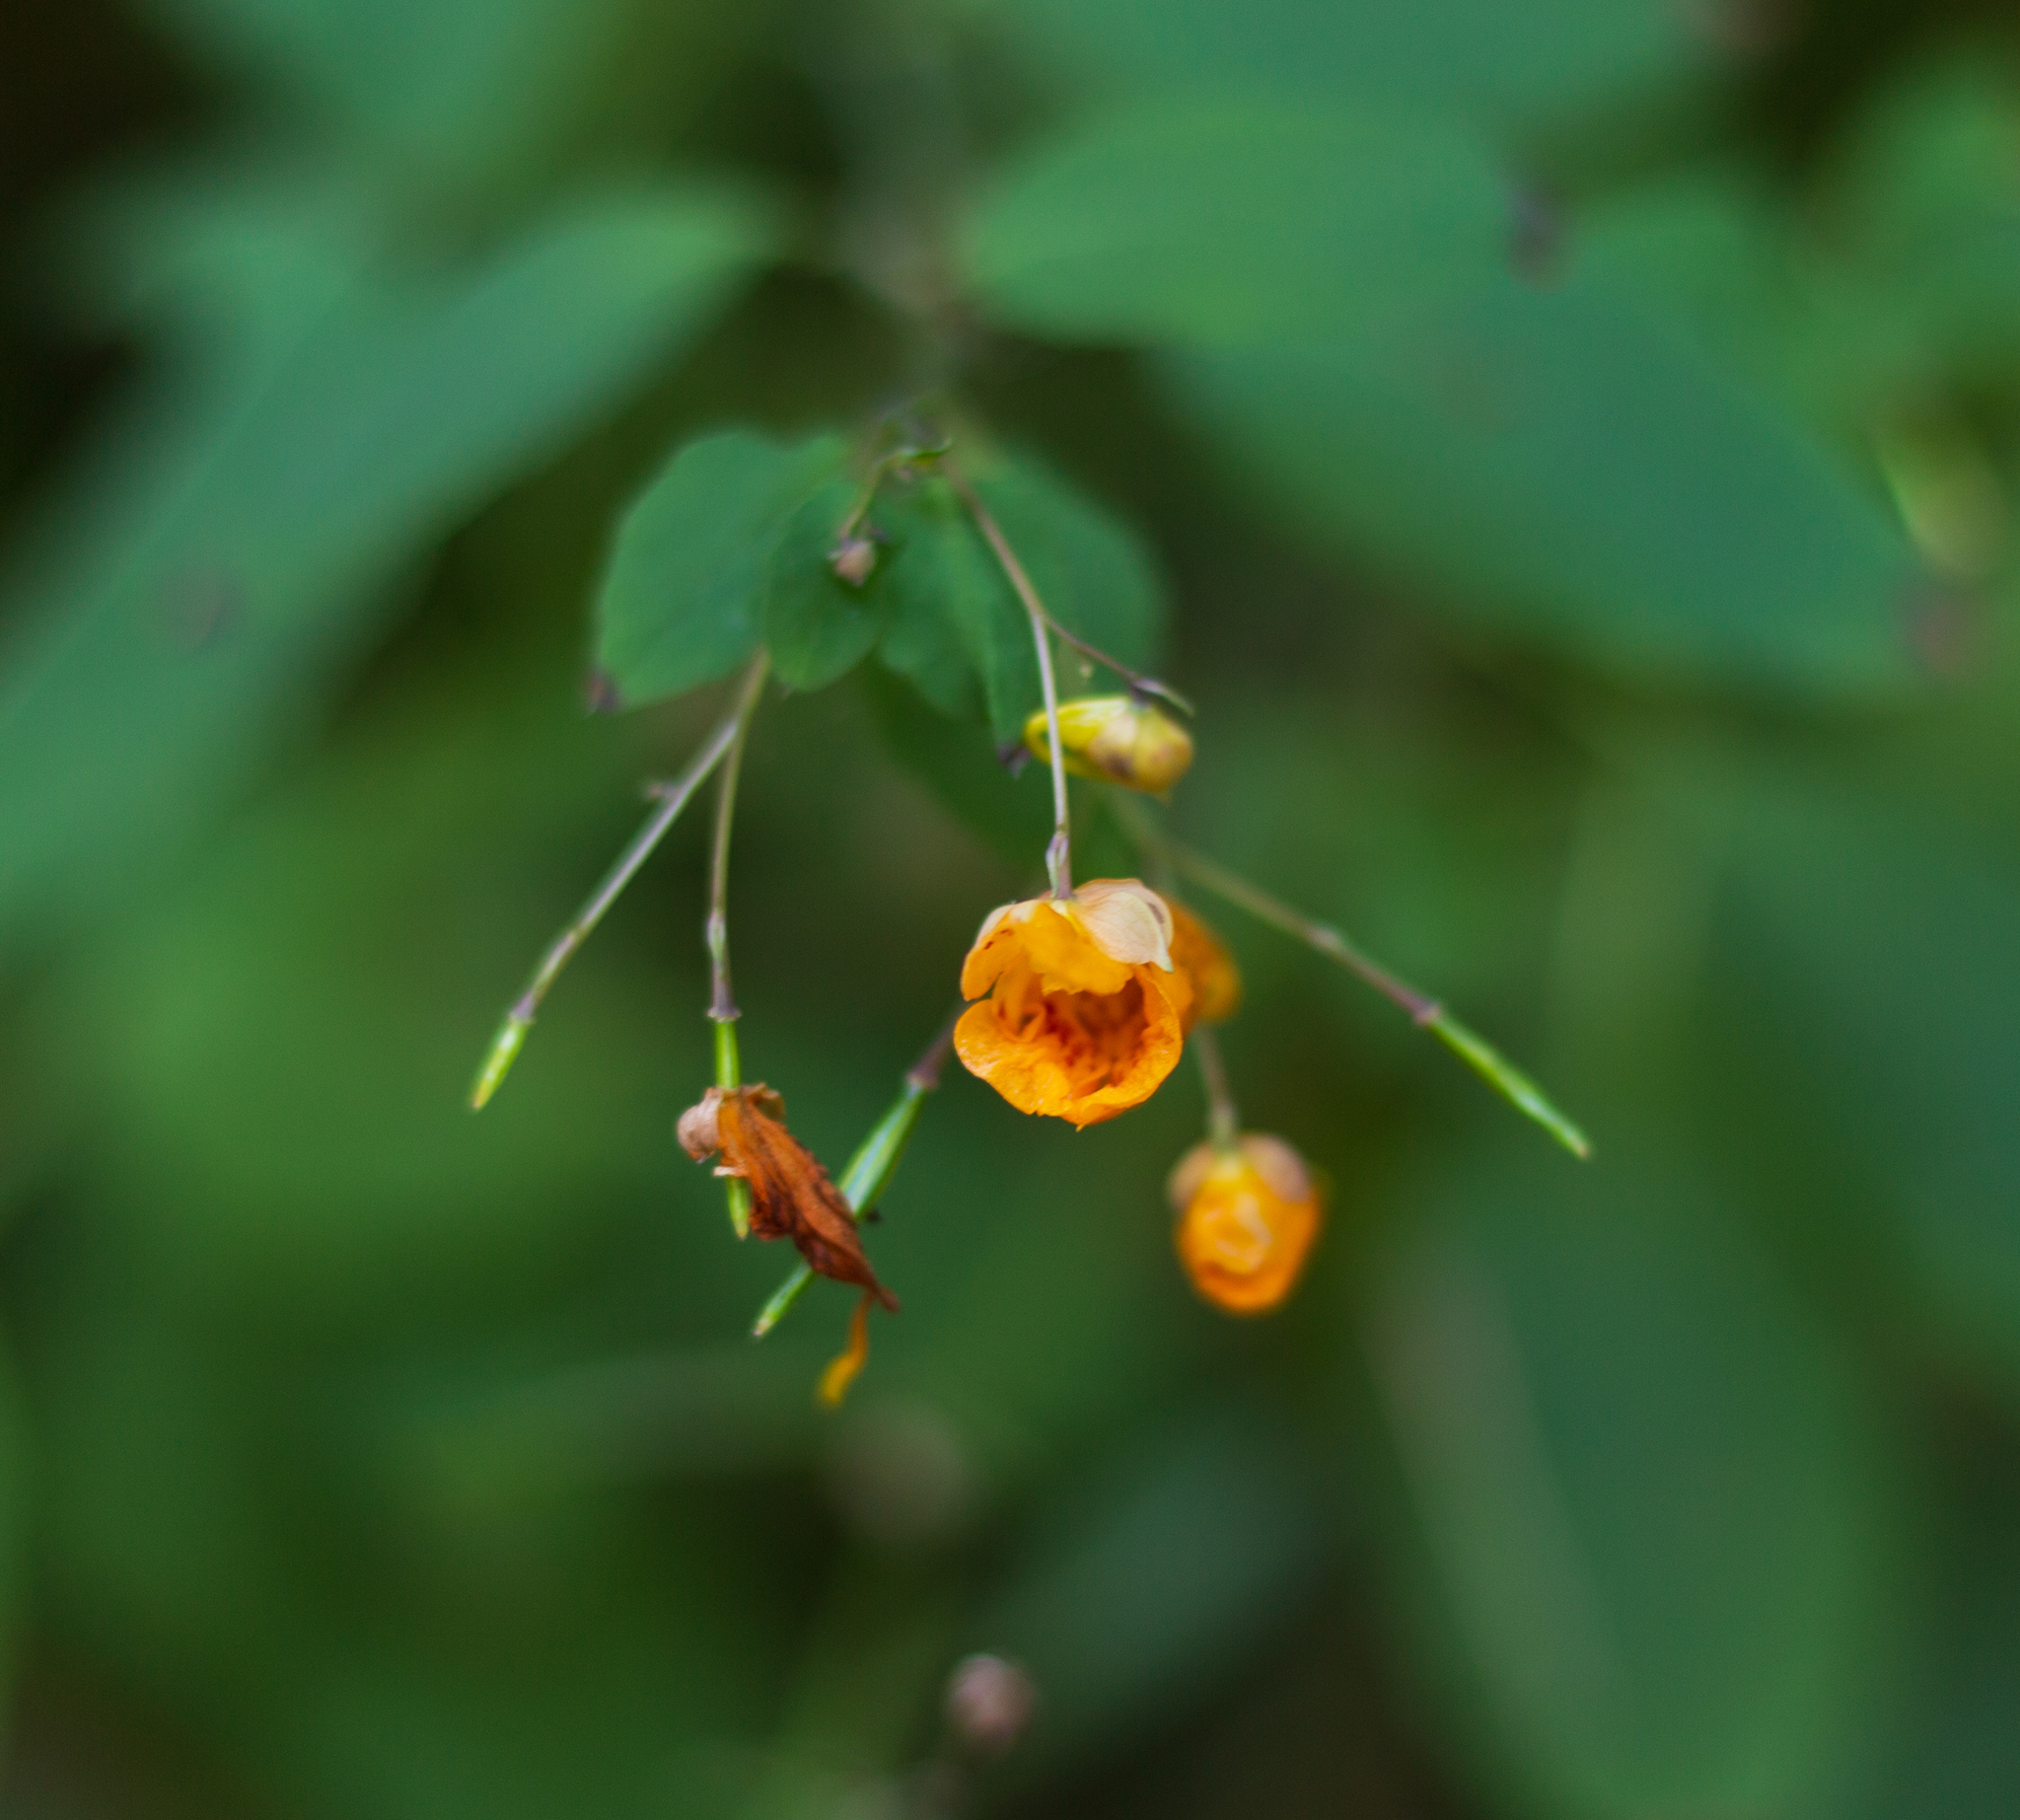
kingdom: Plantae
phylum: Tracheophyta
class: Magnoliopsida
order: Ericales
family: Balsaminaceae
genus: Impatiens
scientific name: Impatiens capensis
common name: Orange balsam
